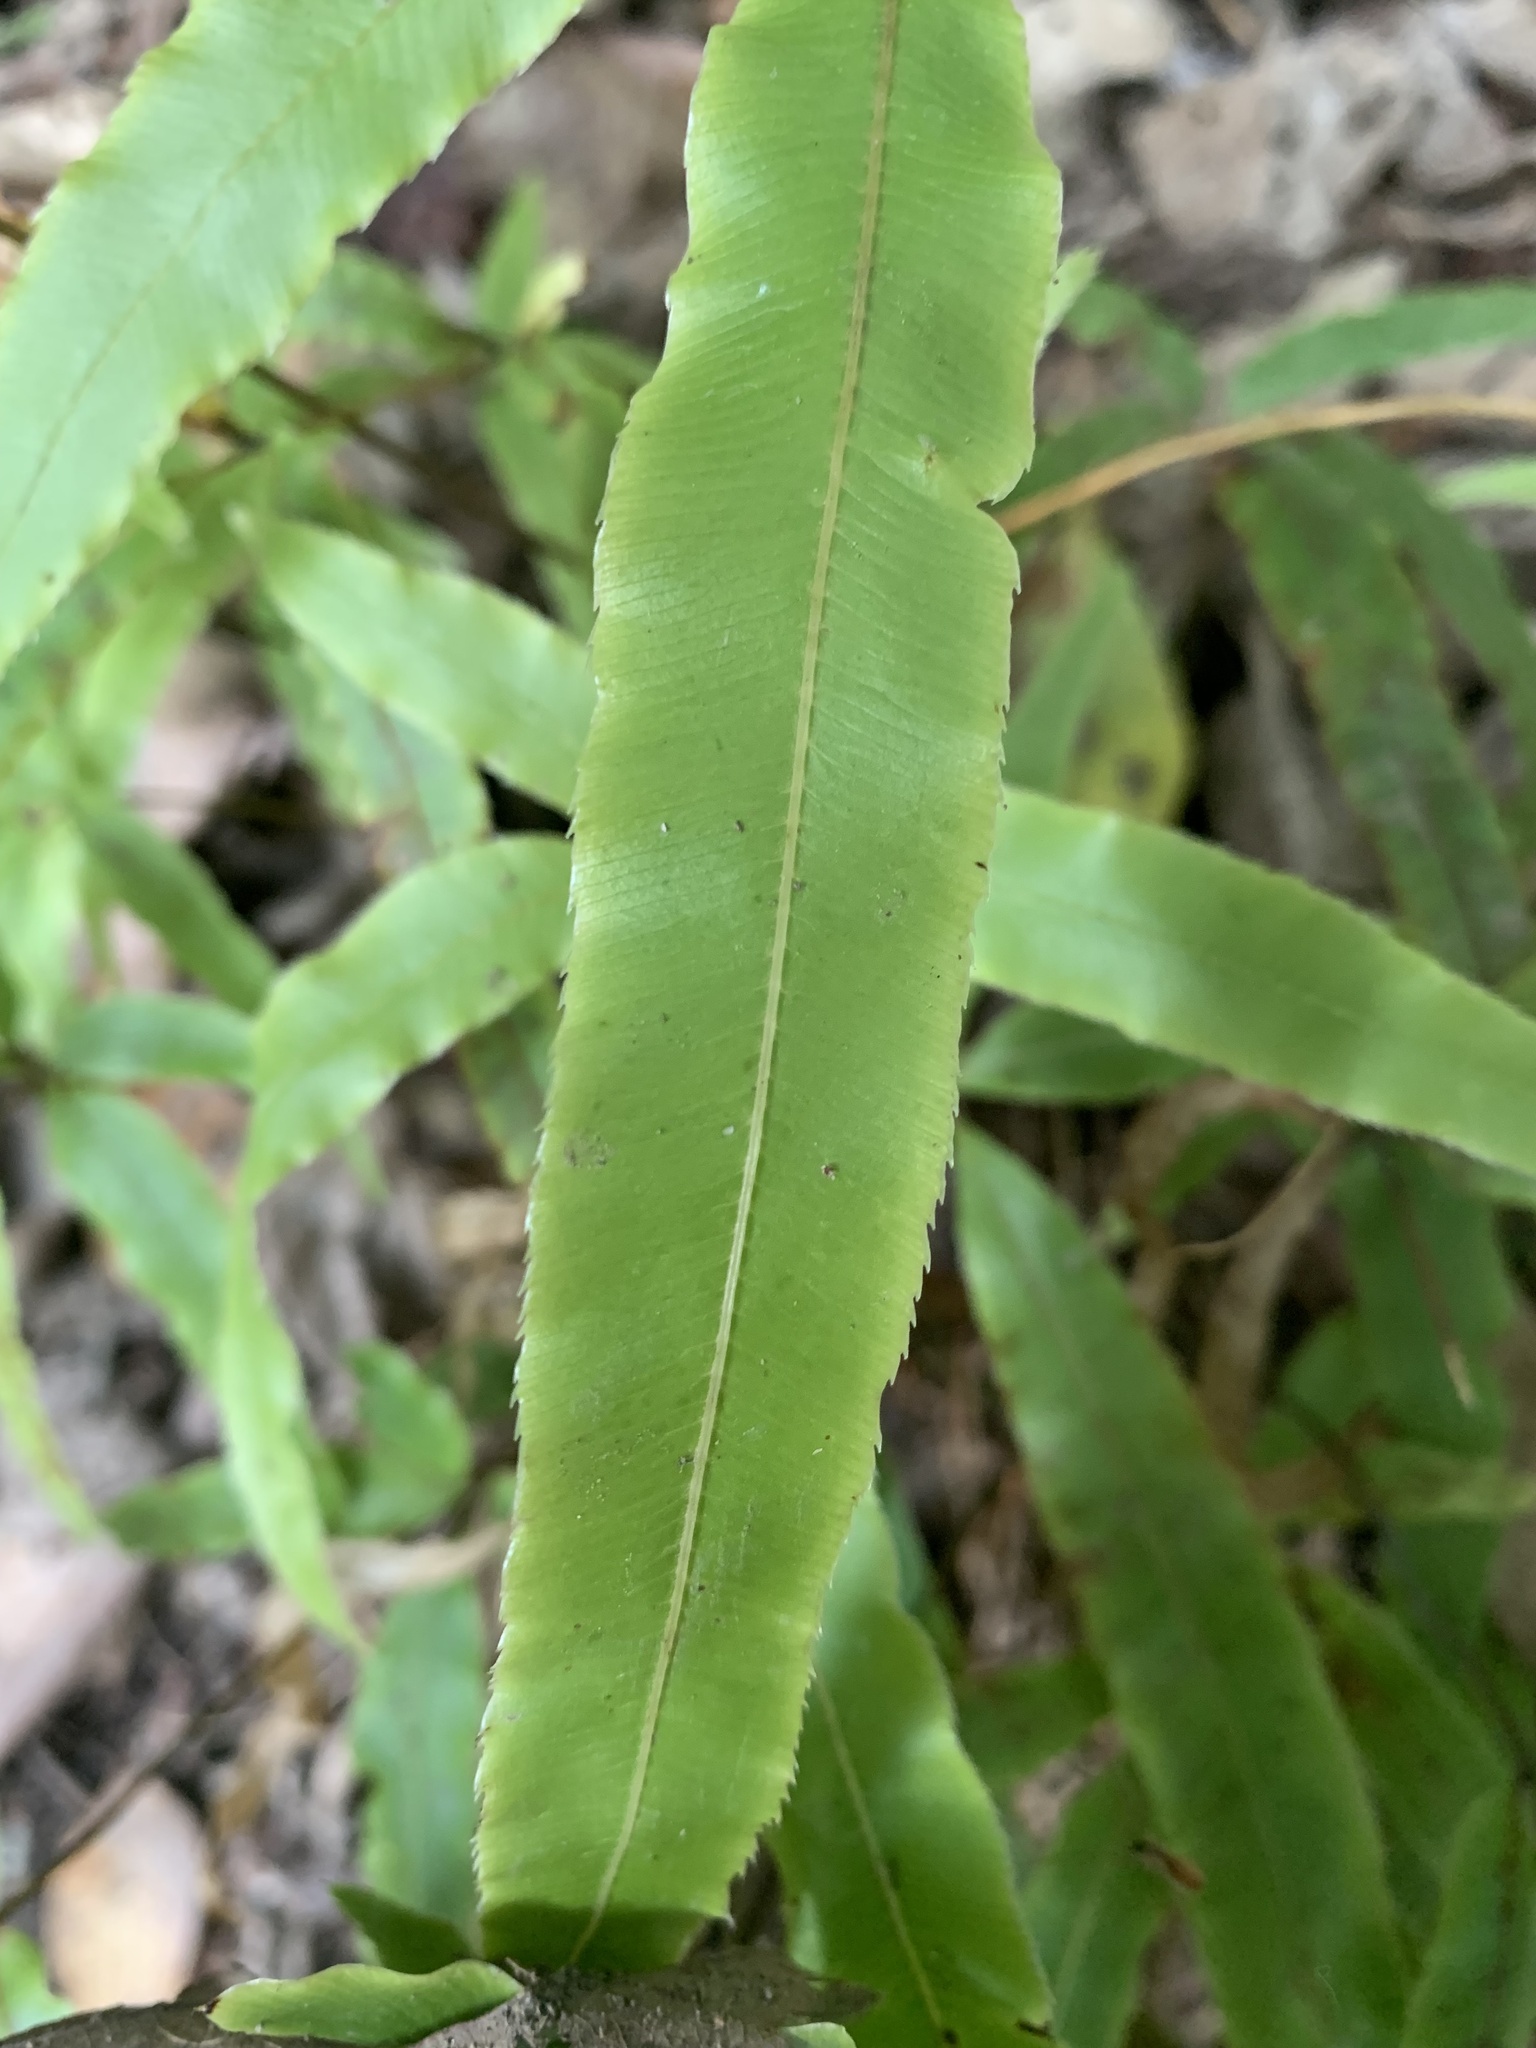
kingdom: Plantae
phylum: Tracheophyta
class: Polypodiopsida
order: Polypodiales
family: Pteridaceae
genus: Pteris
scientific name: Pteris cretica
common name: Ribbon fern
